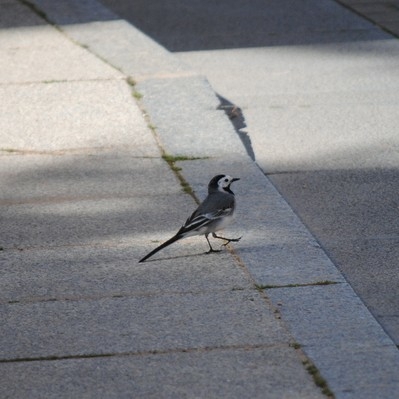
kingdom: Animalia
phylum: Chordata
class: Aves
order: Passeriformes
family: Motacillidae
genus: Motacilla
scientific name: Motacilla alba
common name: White wagtail
